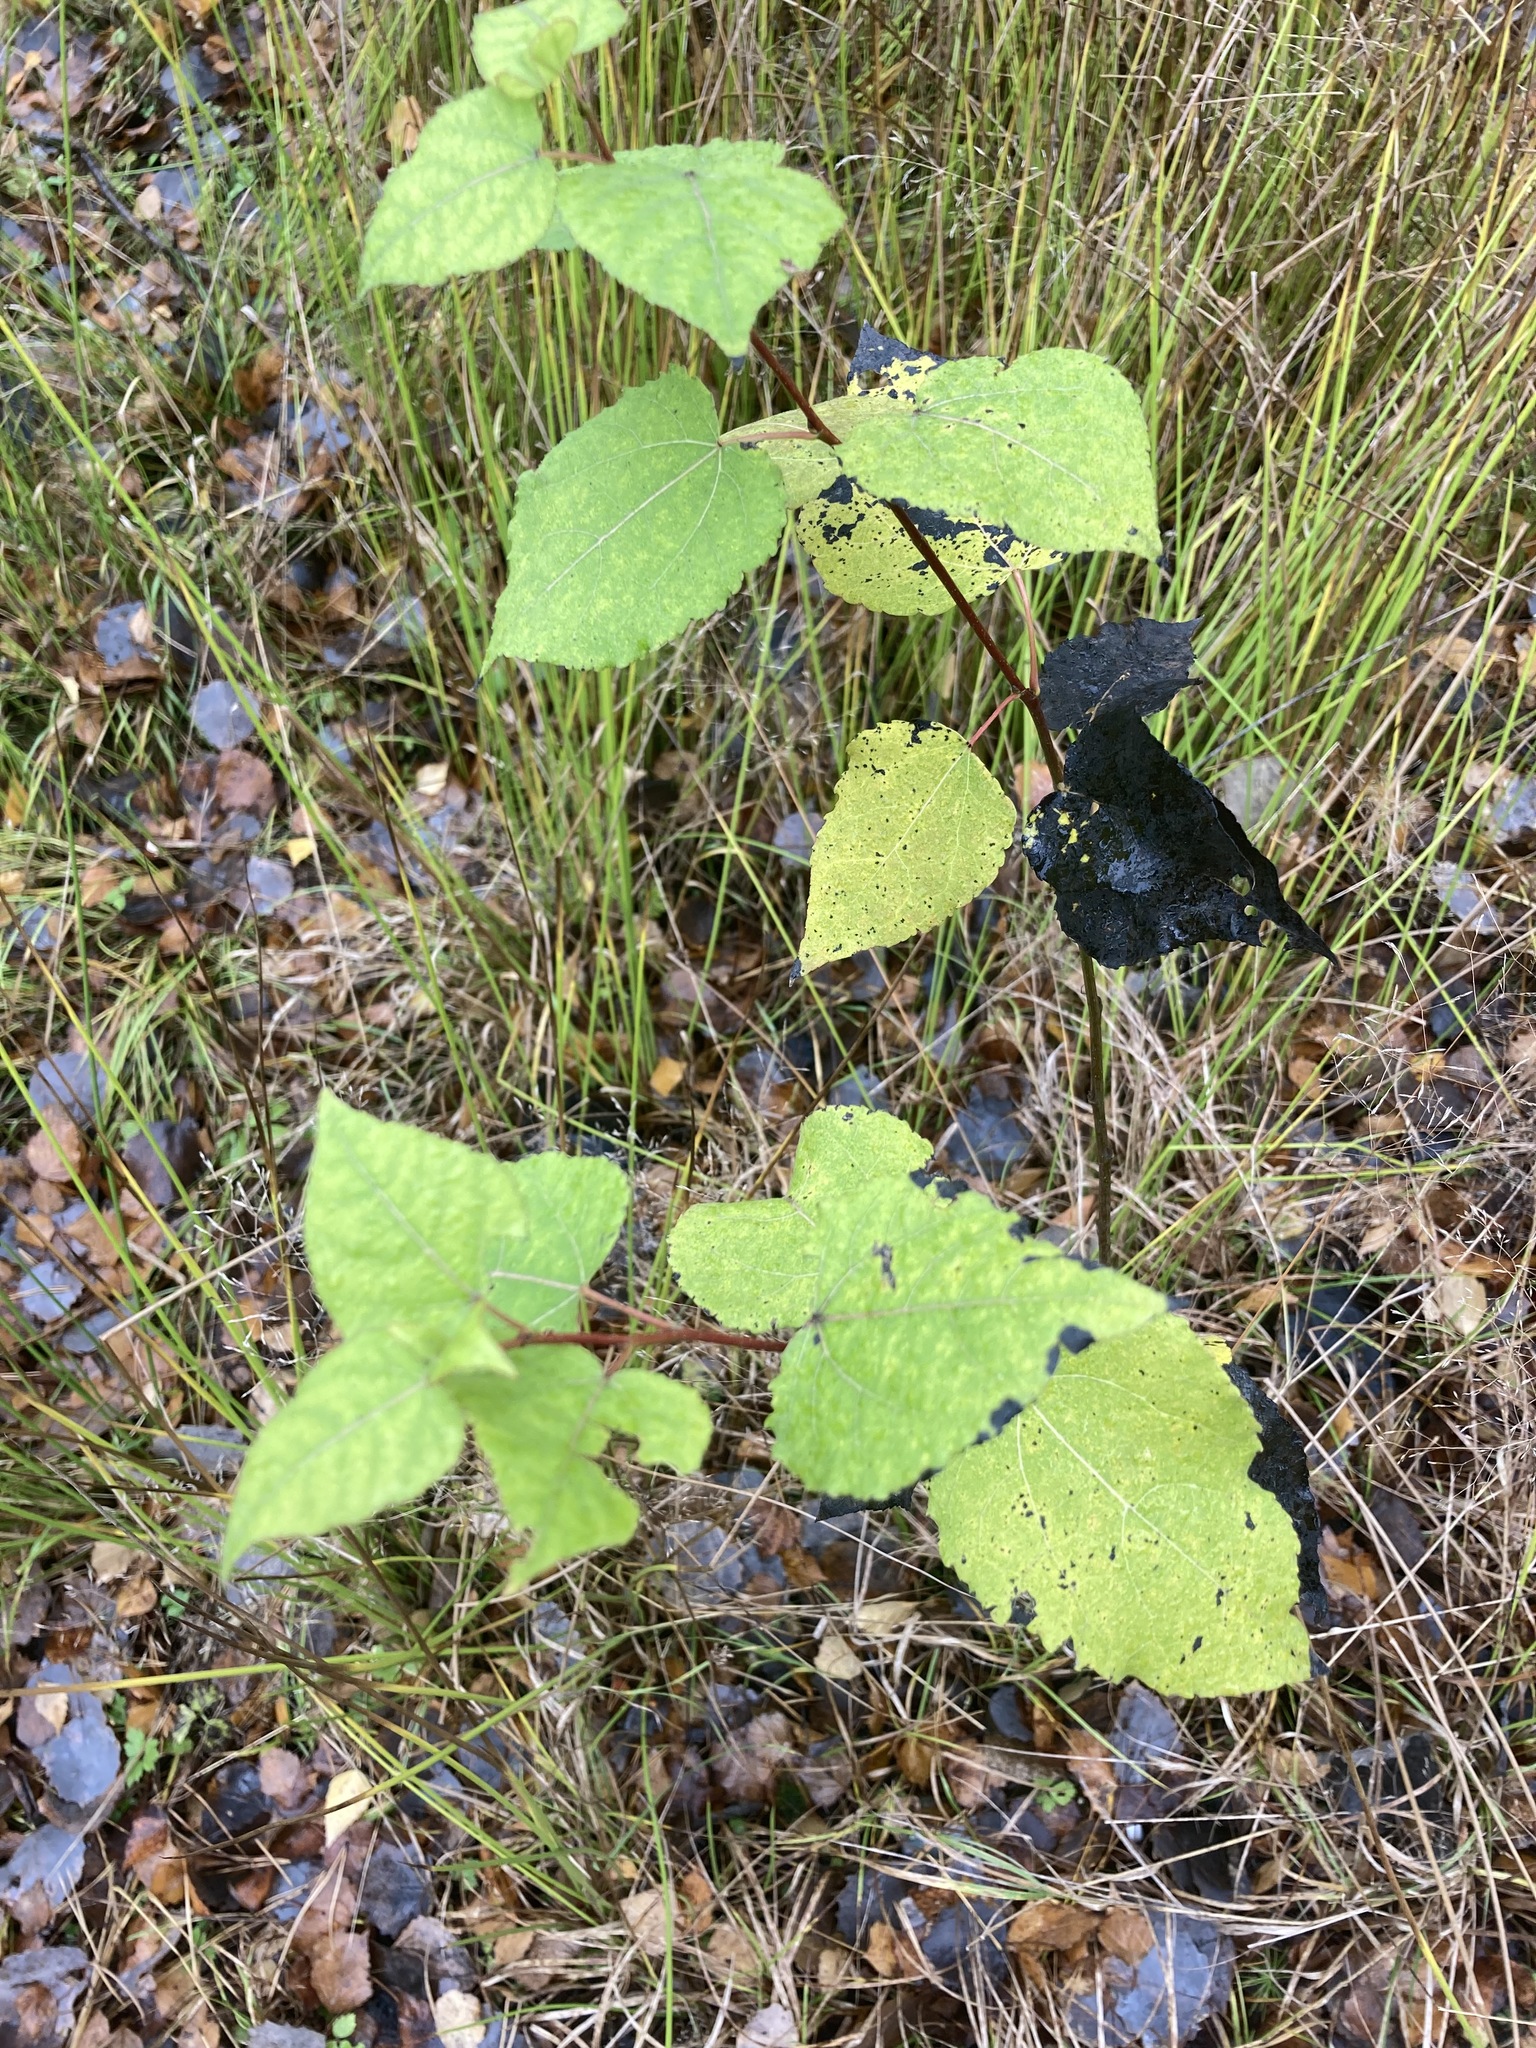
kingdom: Plantae
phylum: Tracheophyta
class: Magnoliopsida
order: Malpighiales
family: Salicaceae
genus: Populus
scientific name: Populus tremula
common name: European aspen
